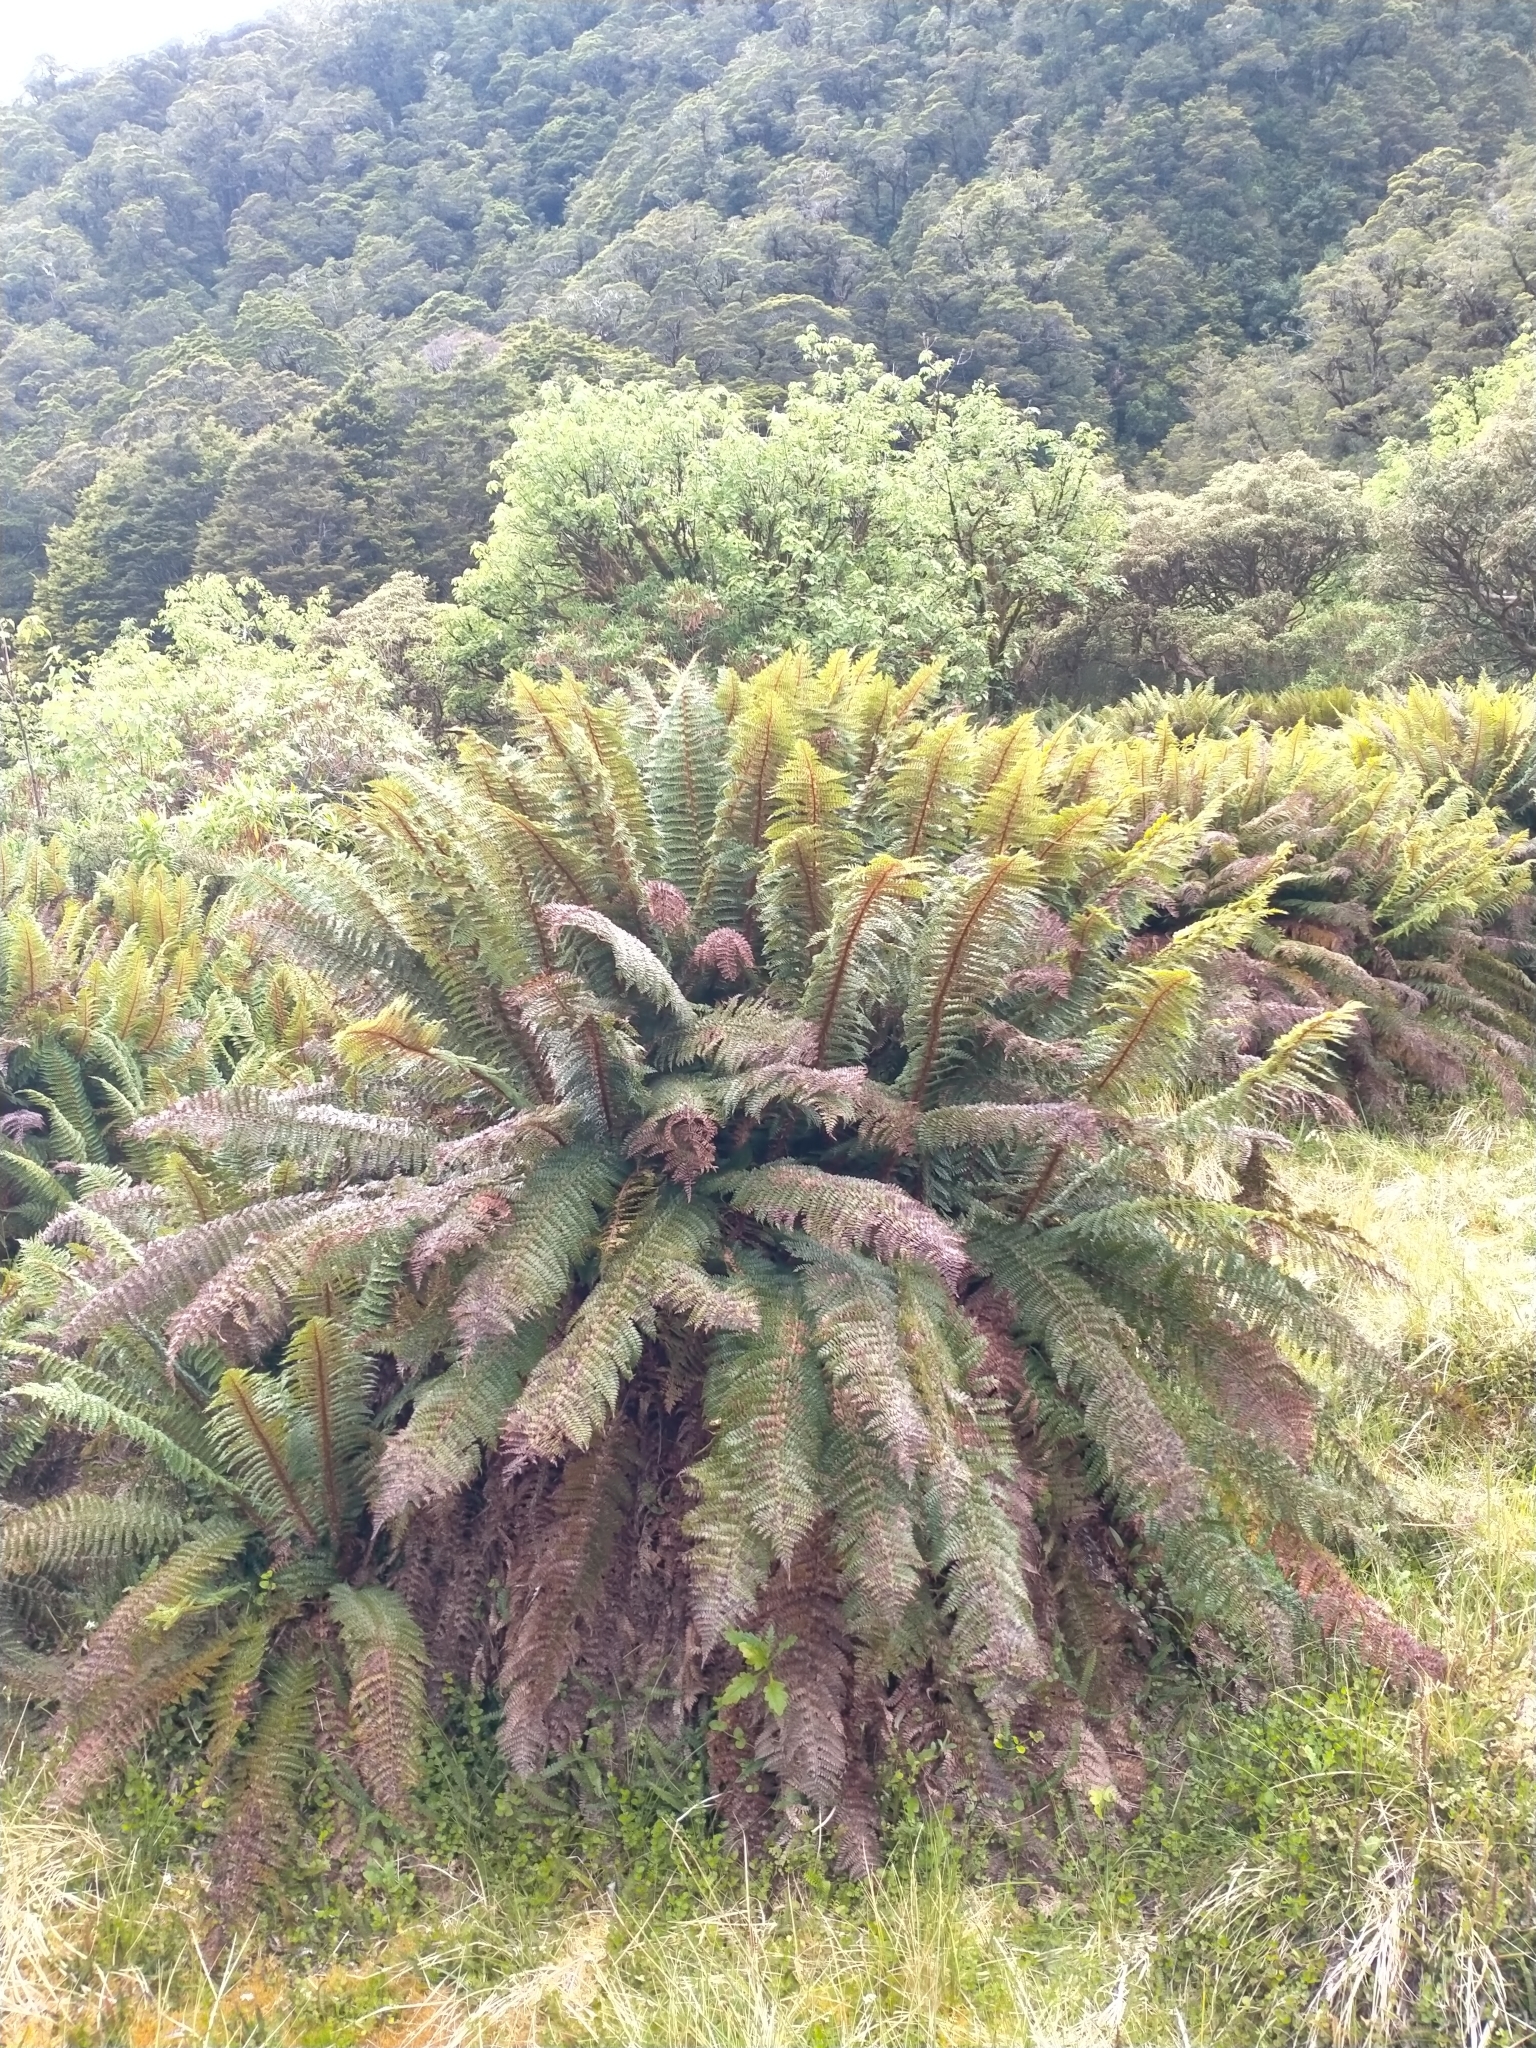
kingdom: Plantae
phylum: Tracheophyta
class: Polypodiopsida
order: Polypodiales
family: Dryopteridaceae
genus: Polystichum
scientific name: Polystichum vestitum
